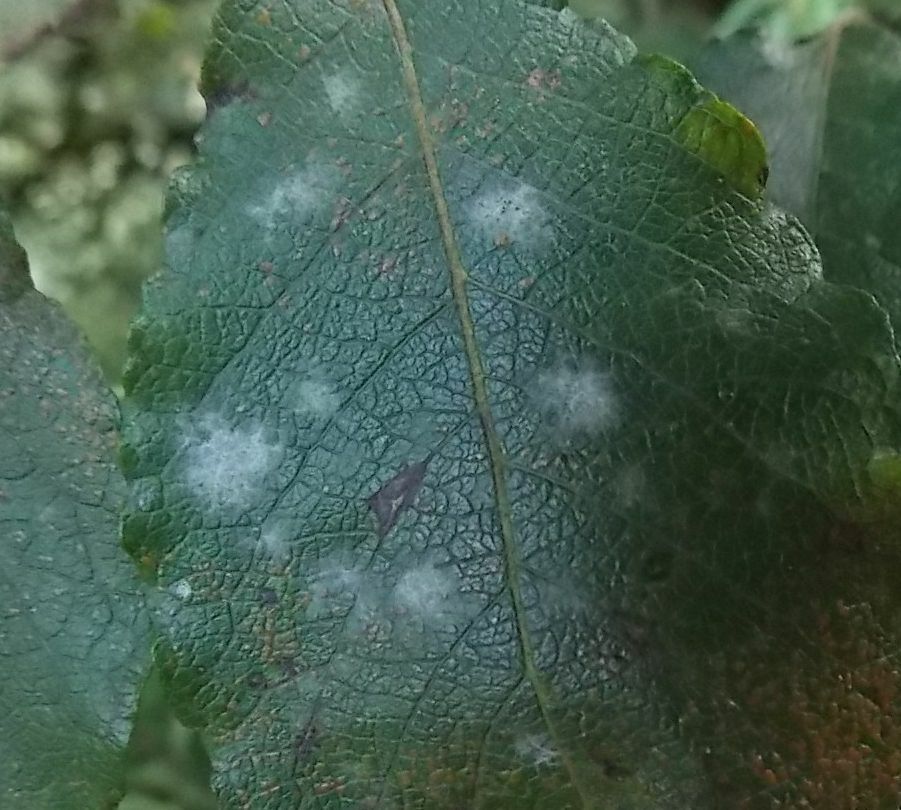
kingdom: Fungi
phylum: Ascomycota
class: Leotiomycetes
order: Helotiales
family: Erysiphaceae
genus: Erysiphe
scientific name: Erysiphe capreae
